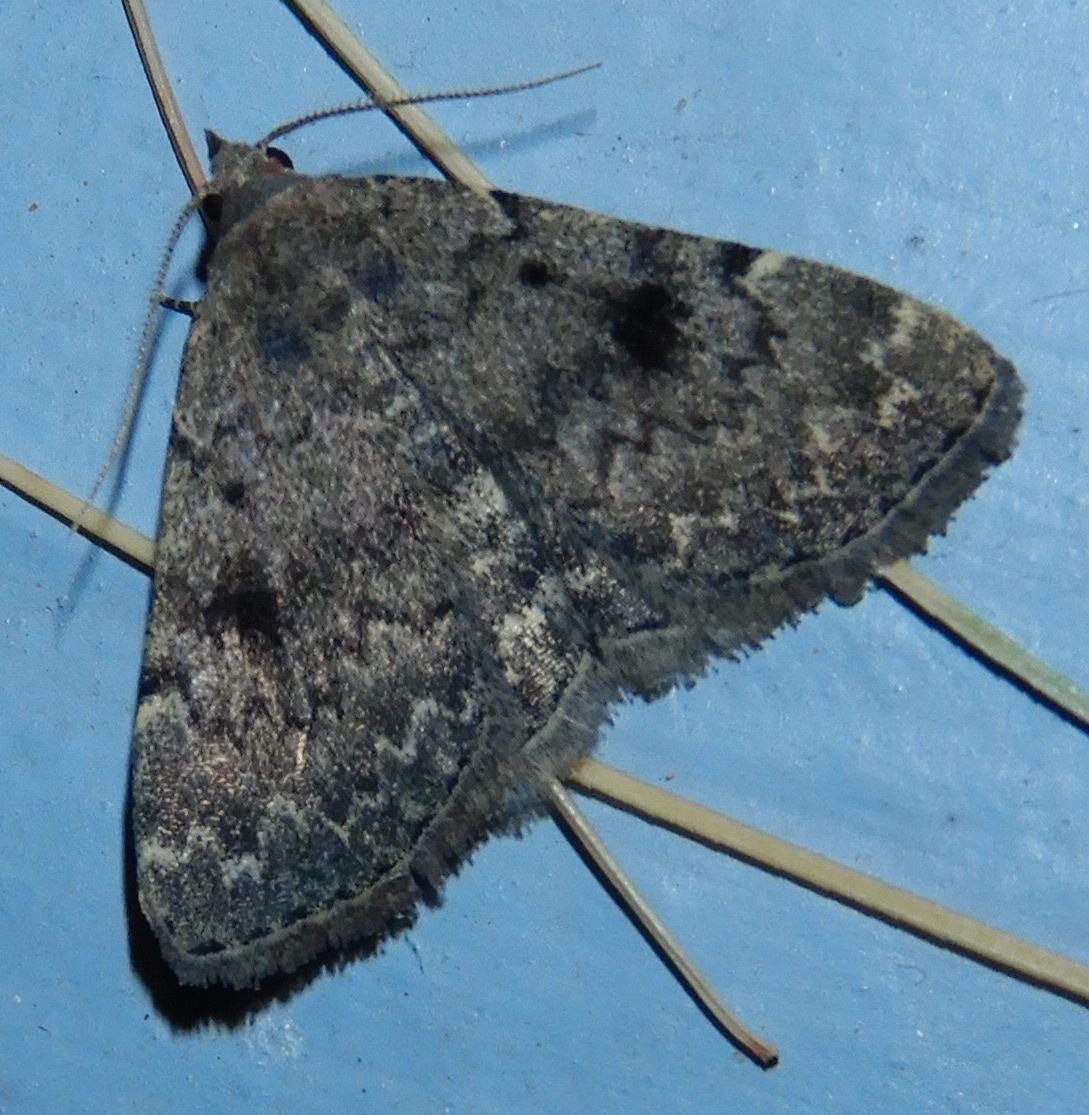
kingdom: Animalia
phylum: Arthropoda
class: Insecta
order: Lepidoptera
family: Erebidae
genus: Idia
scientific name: Idia aemula
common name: Common idia moth
